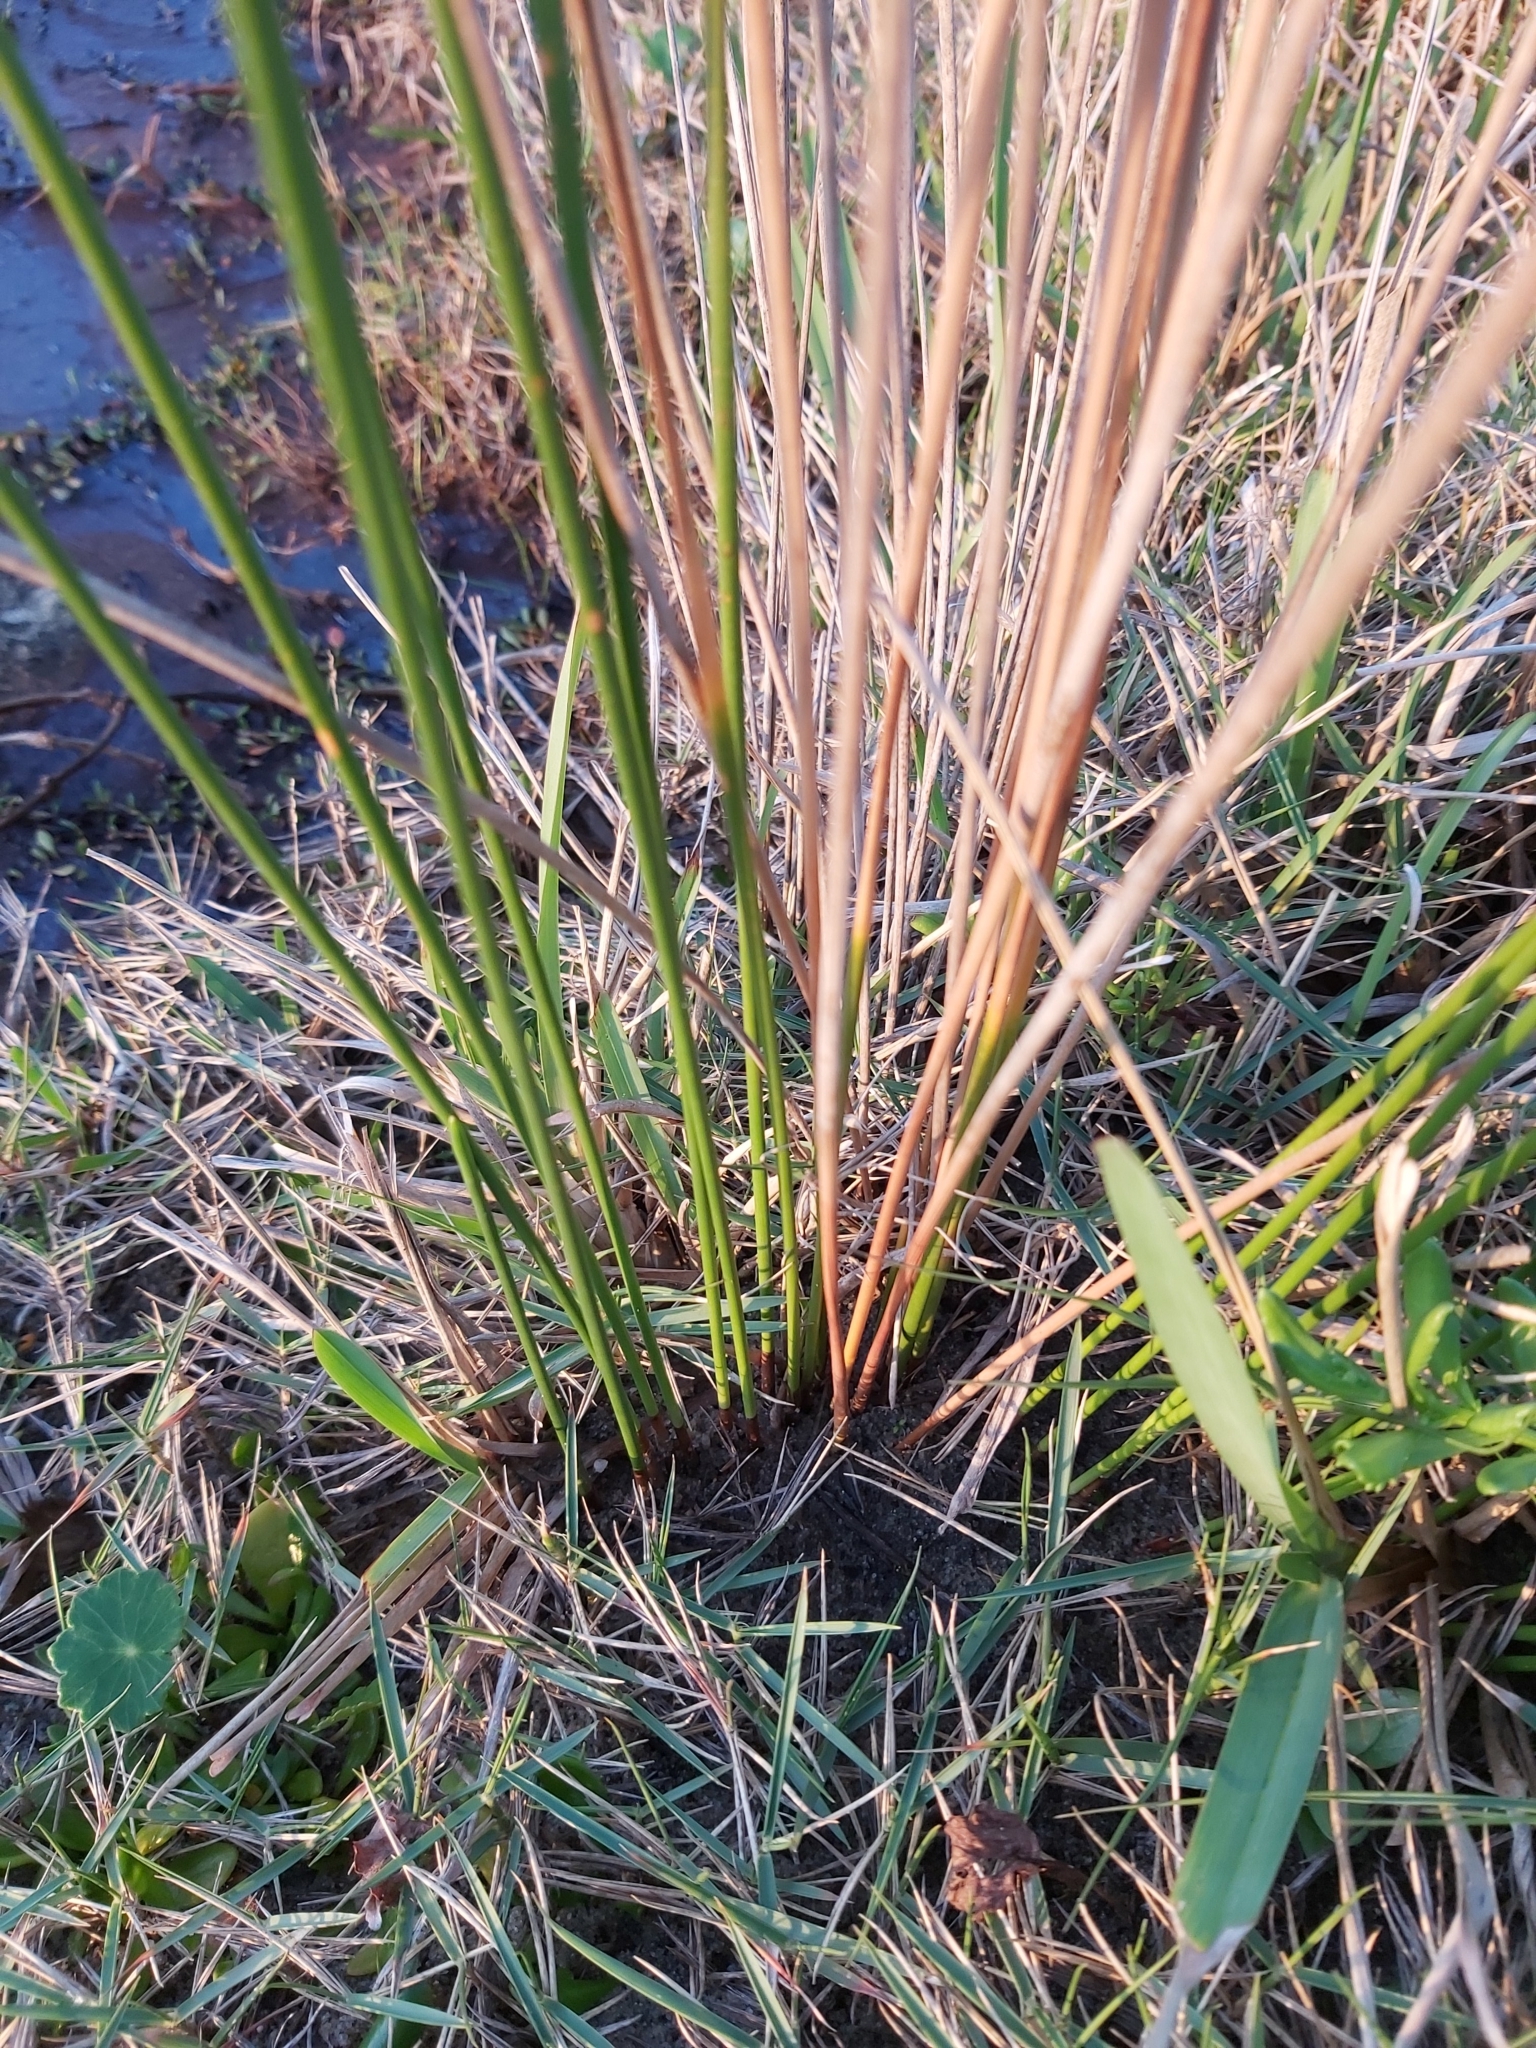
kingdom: Plantae
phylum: Tracheophyta
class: Liliopsida
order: Poales
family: Cyperaceae
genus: Ficinia
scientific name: Ficinia nodosa
